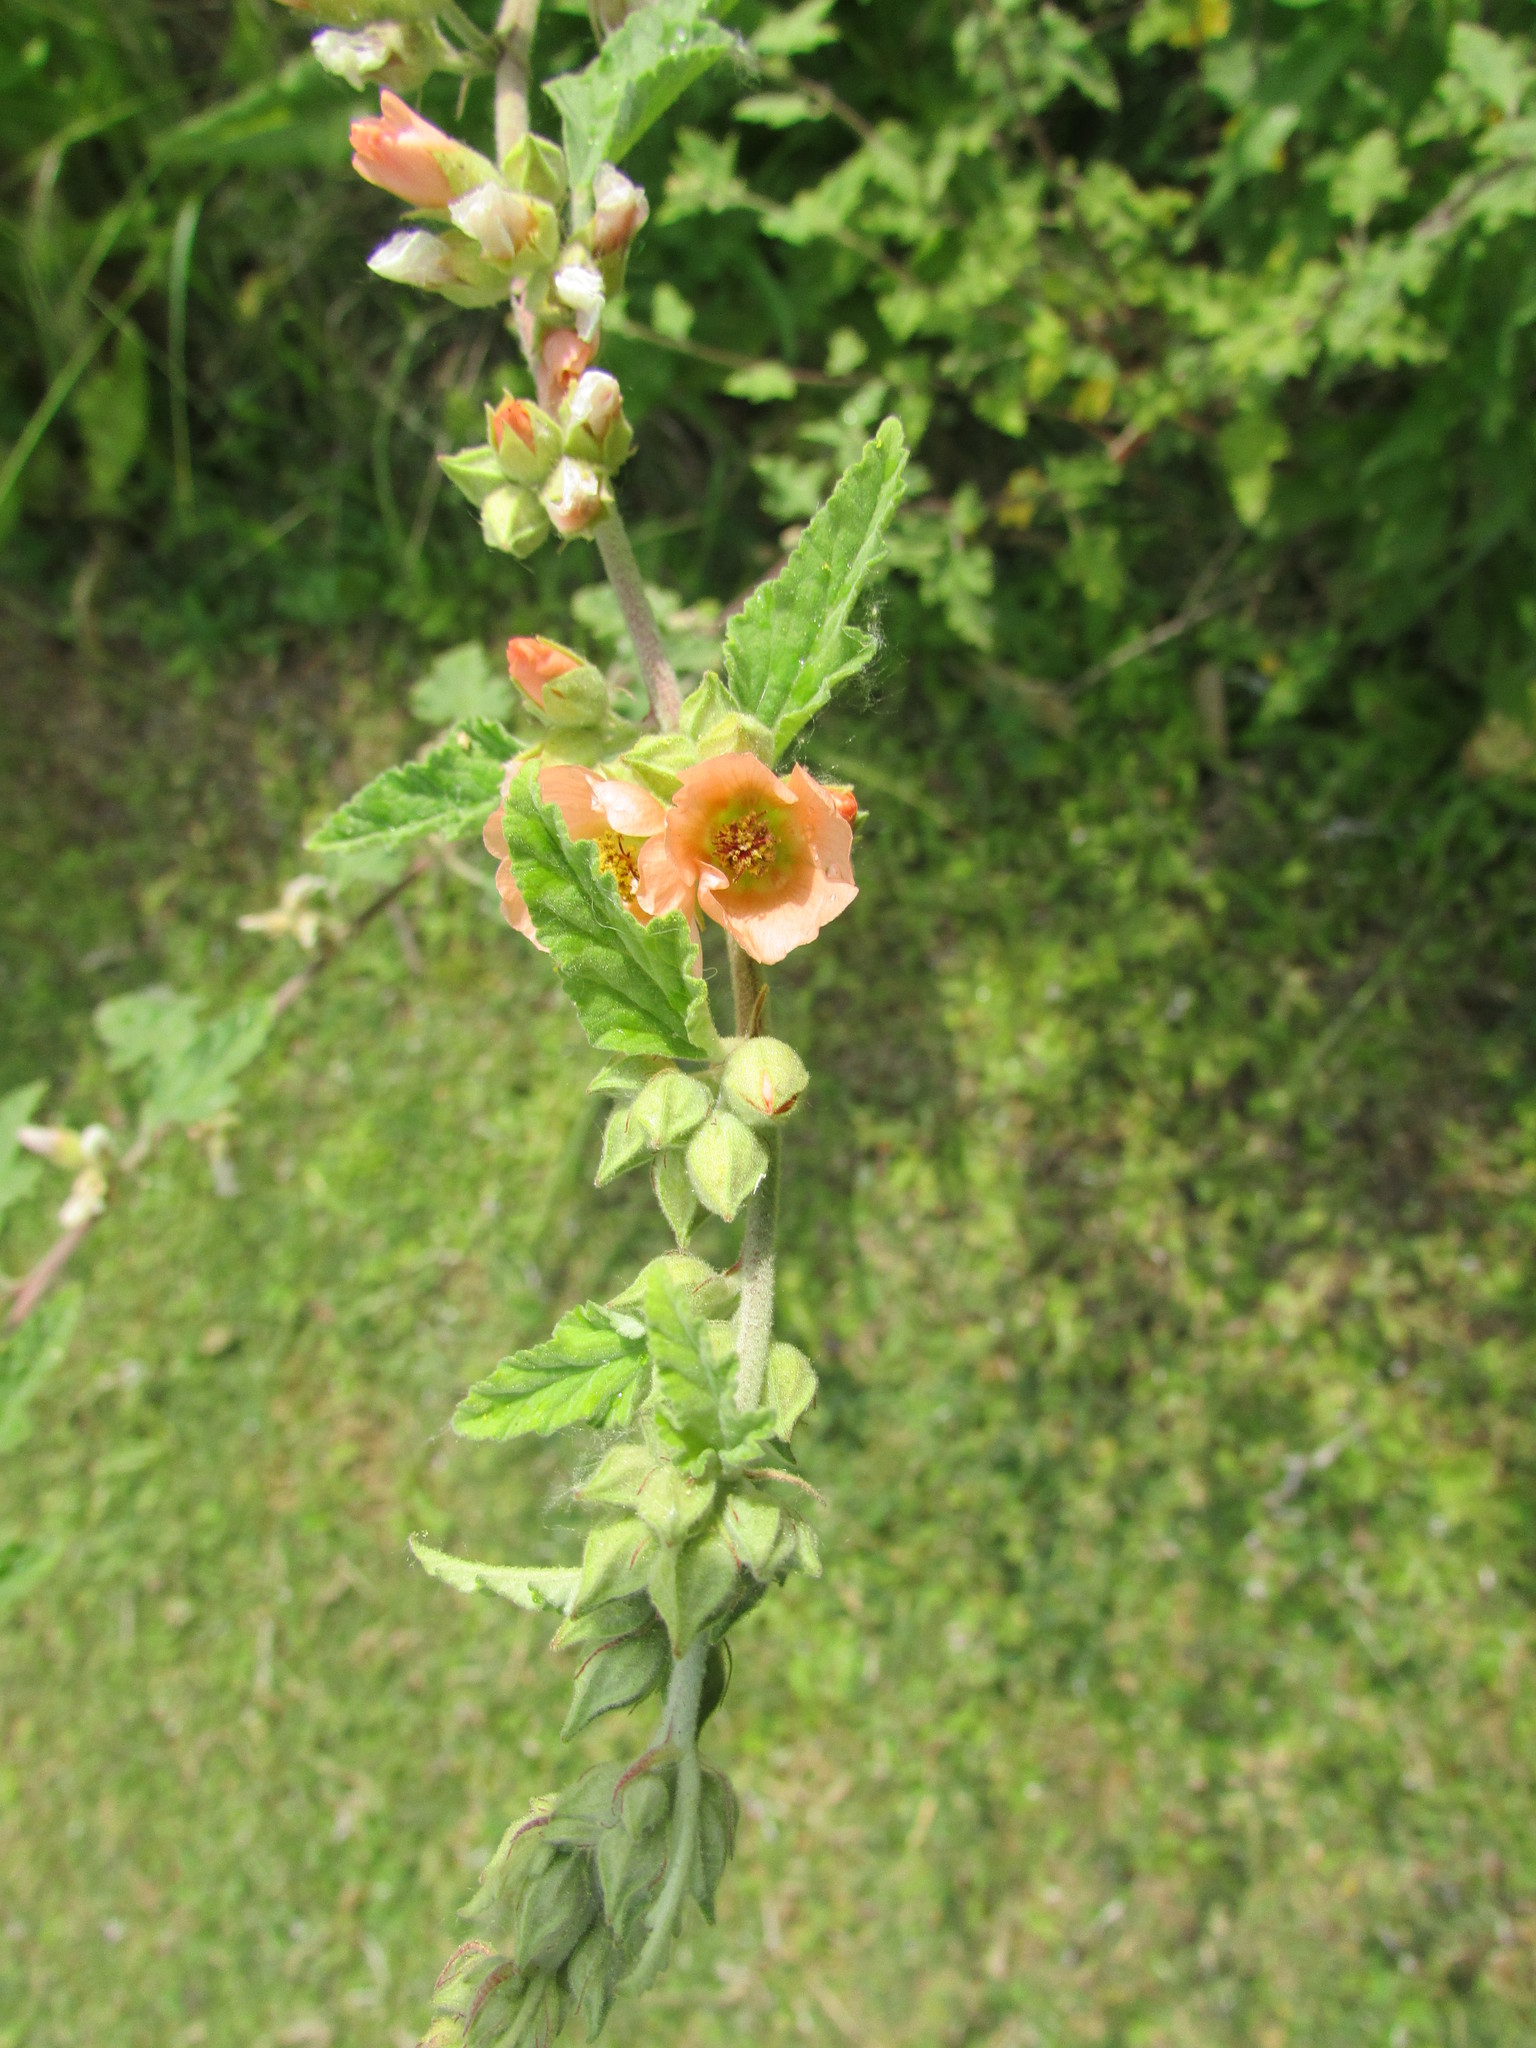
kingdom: Plantae
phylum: Tracheophyta
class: Magnoliopsida
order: Malvales
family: Malvaceae
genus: Sphaeralcea
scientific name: Sphaeralcea bonariensis
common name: Latin globemallow
